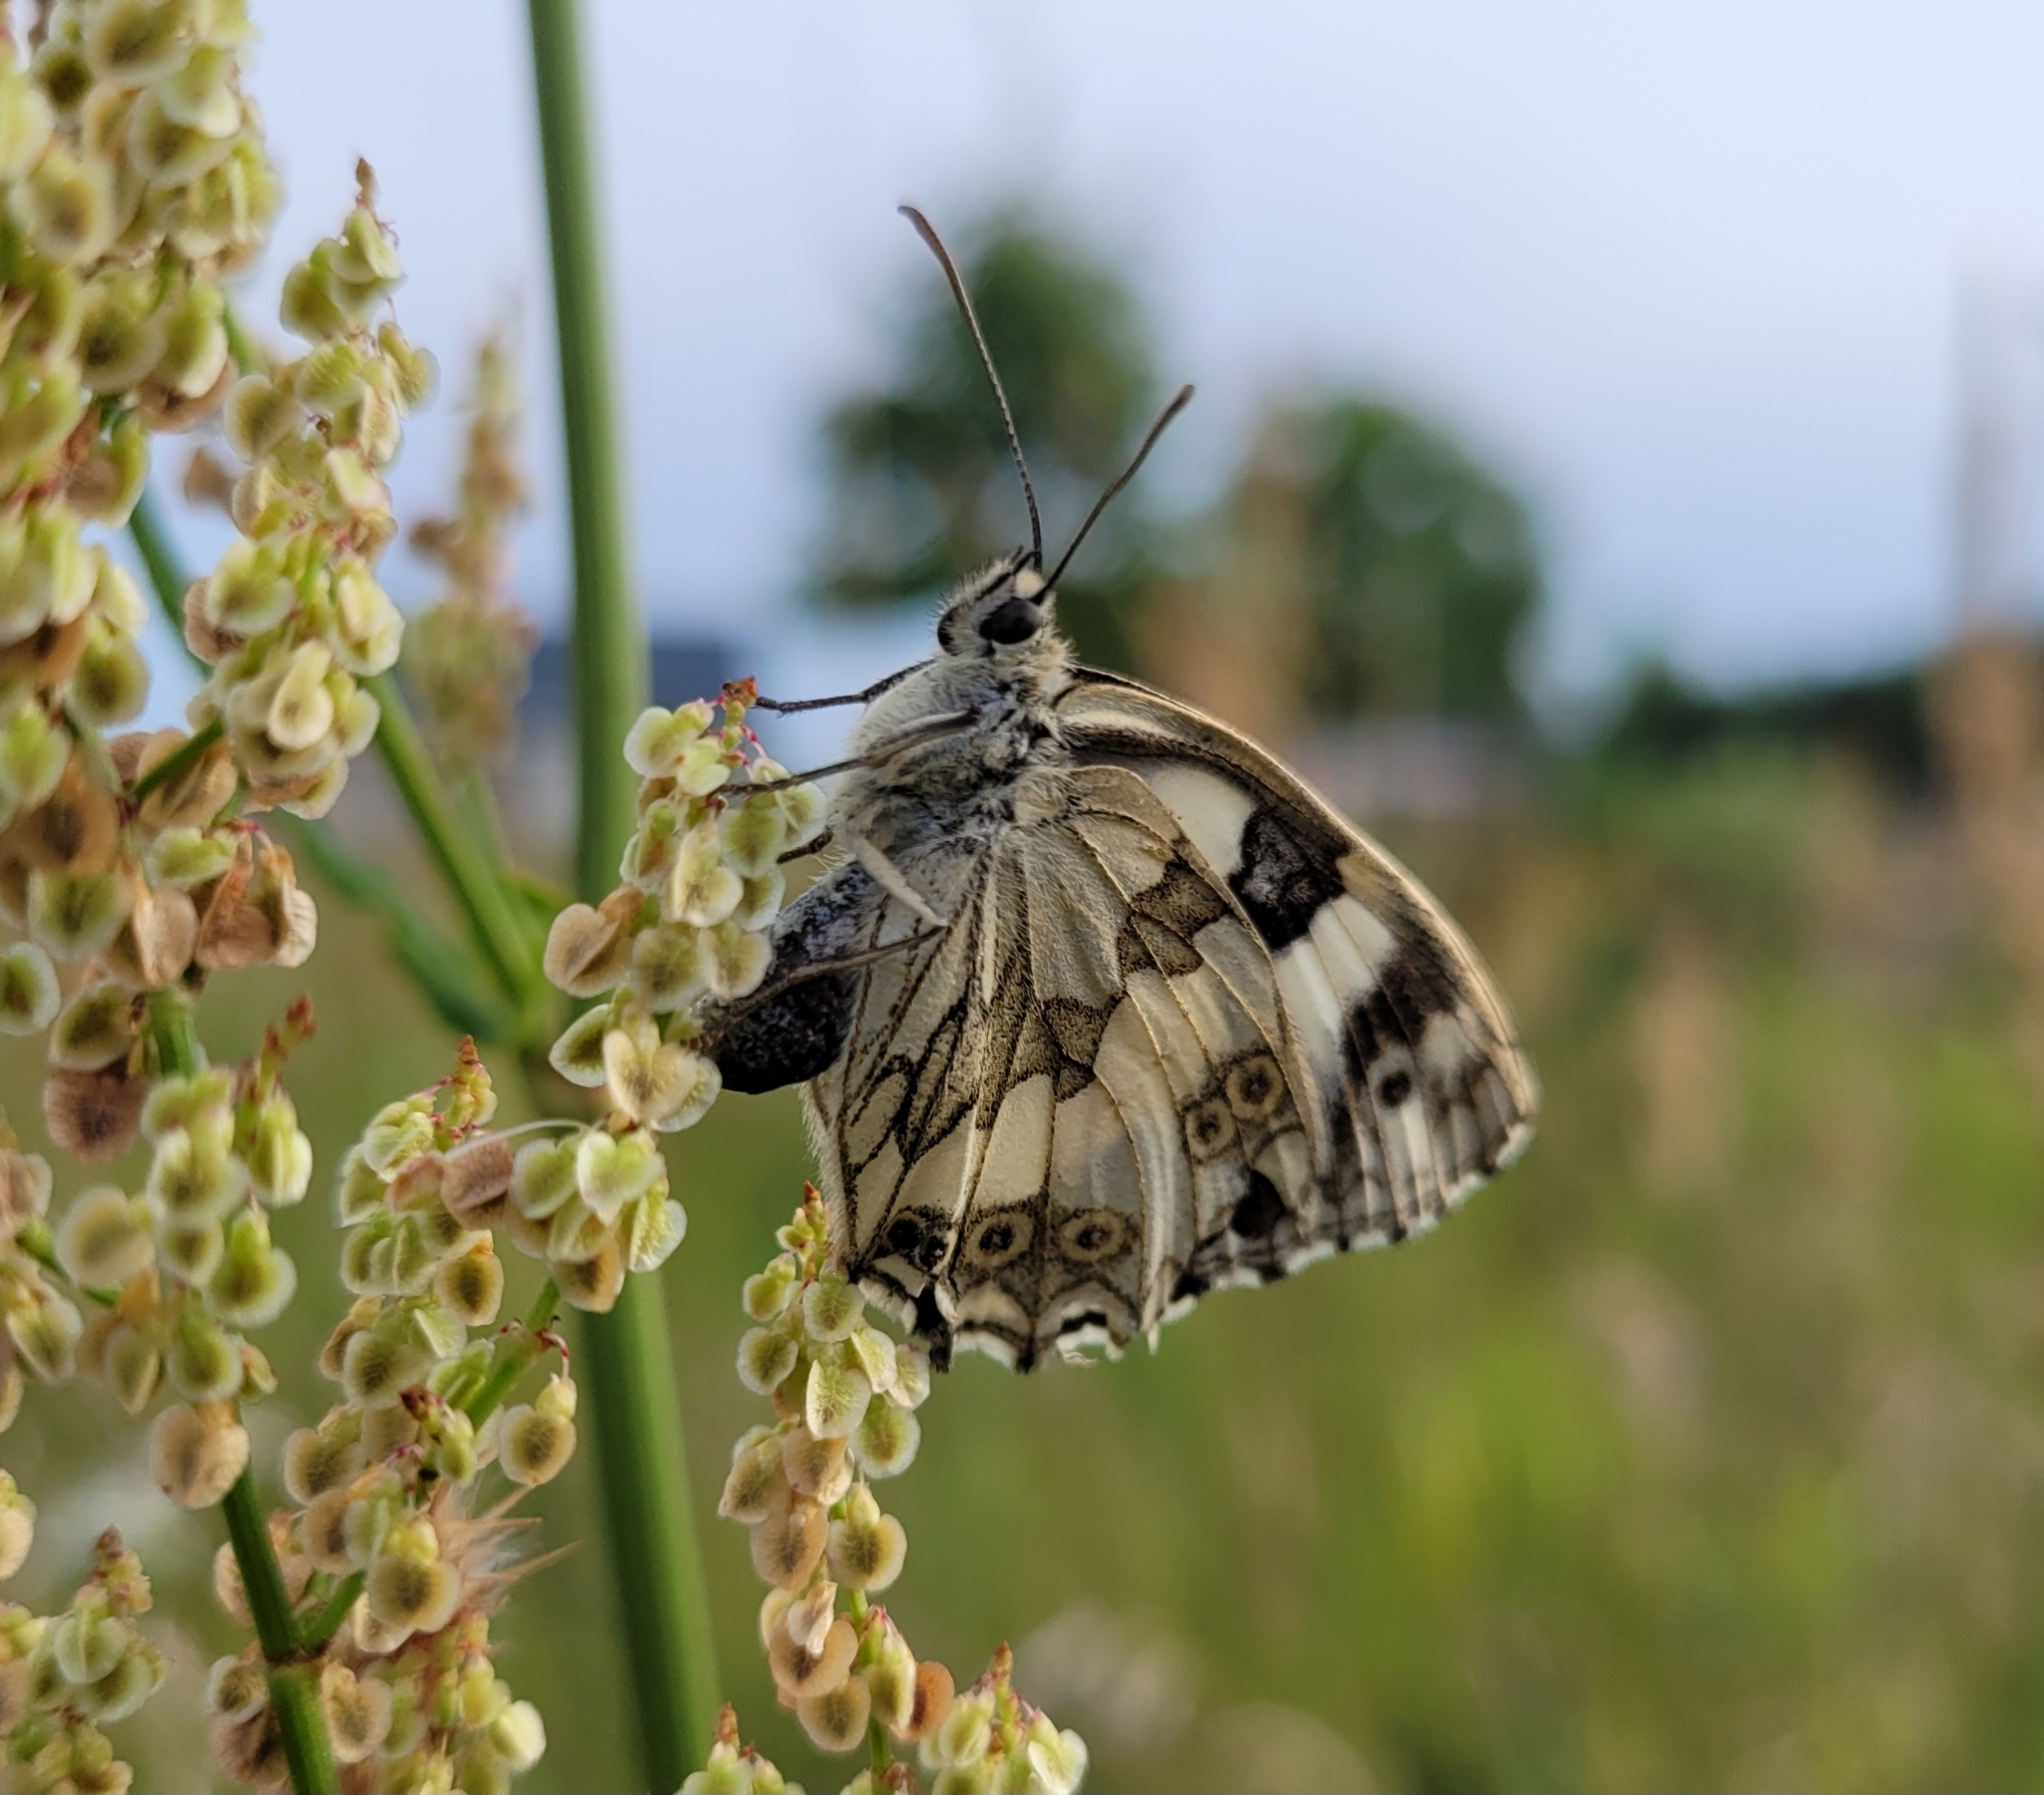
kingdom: Animalia
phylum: Arthropoda
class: Insecta
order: Lepidoptera
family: Nymphalidae
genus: Melanargia
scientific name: Melanargia galathea
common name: Marbled white
